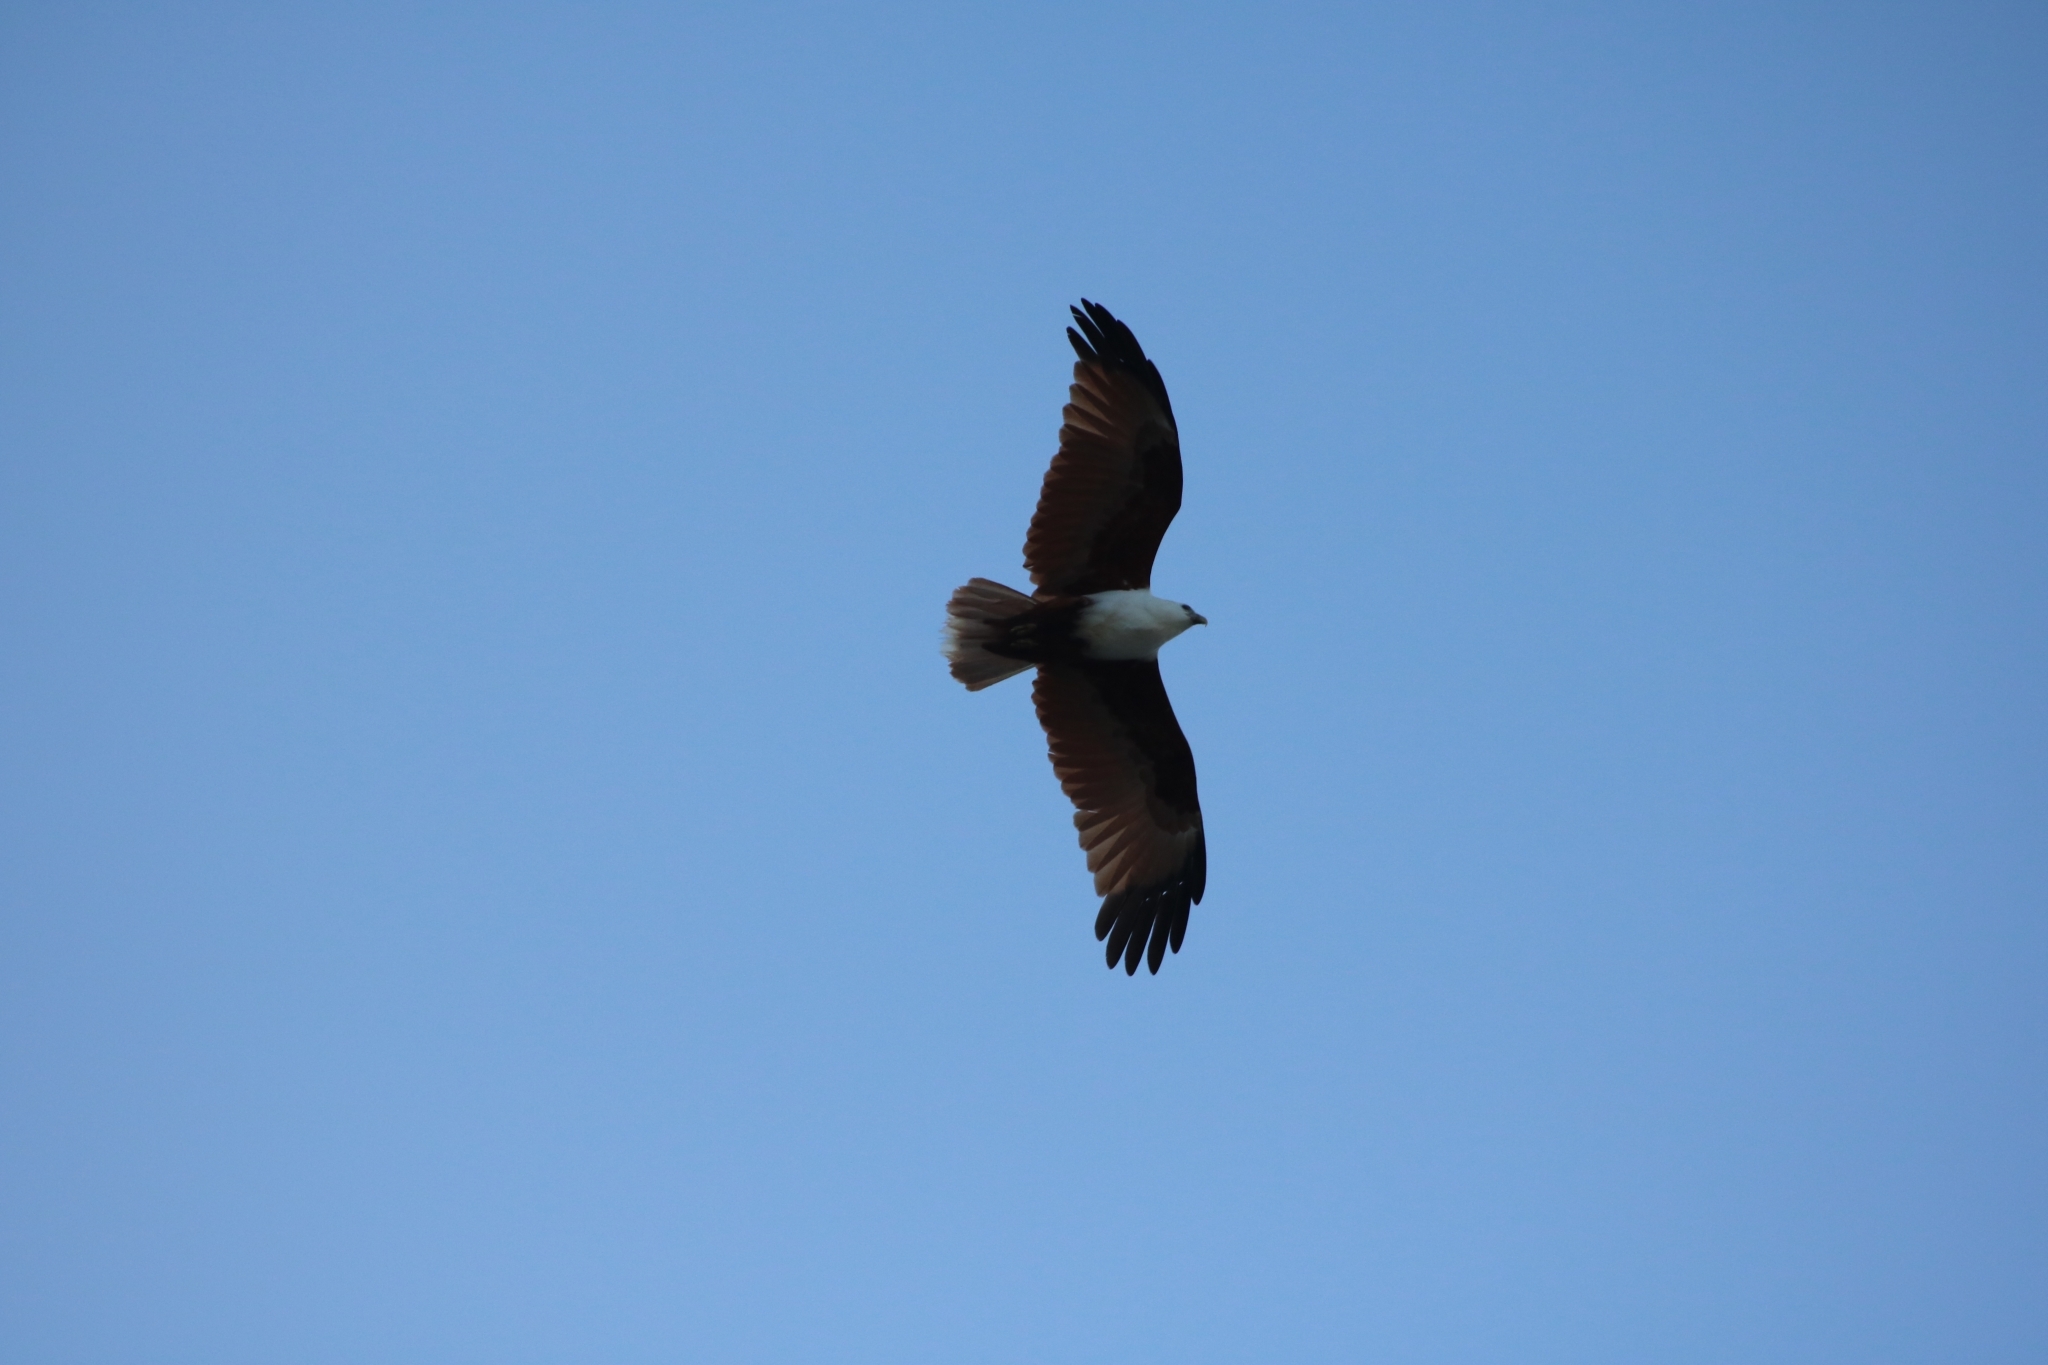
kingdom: Animalia
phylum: Chordata
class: Aves
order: Accipitriformes
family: Accipitridae
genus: Haliastur
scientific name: Haliastur indus
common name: Brahminy kite
